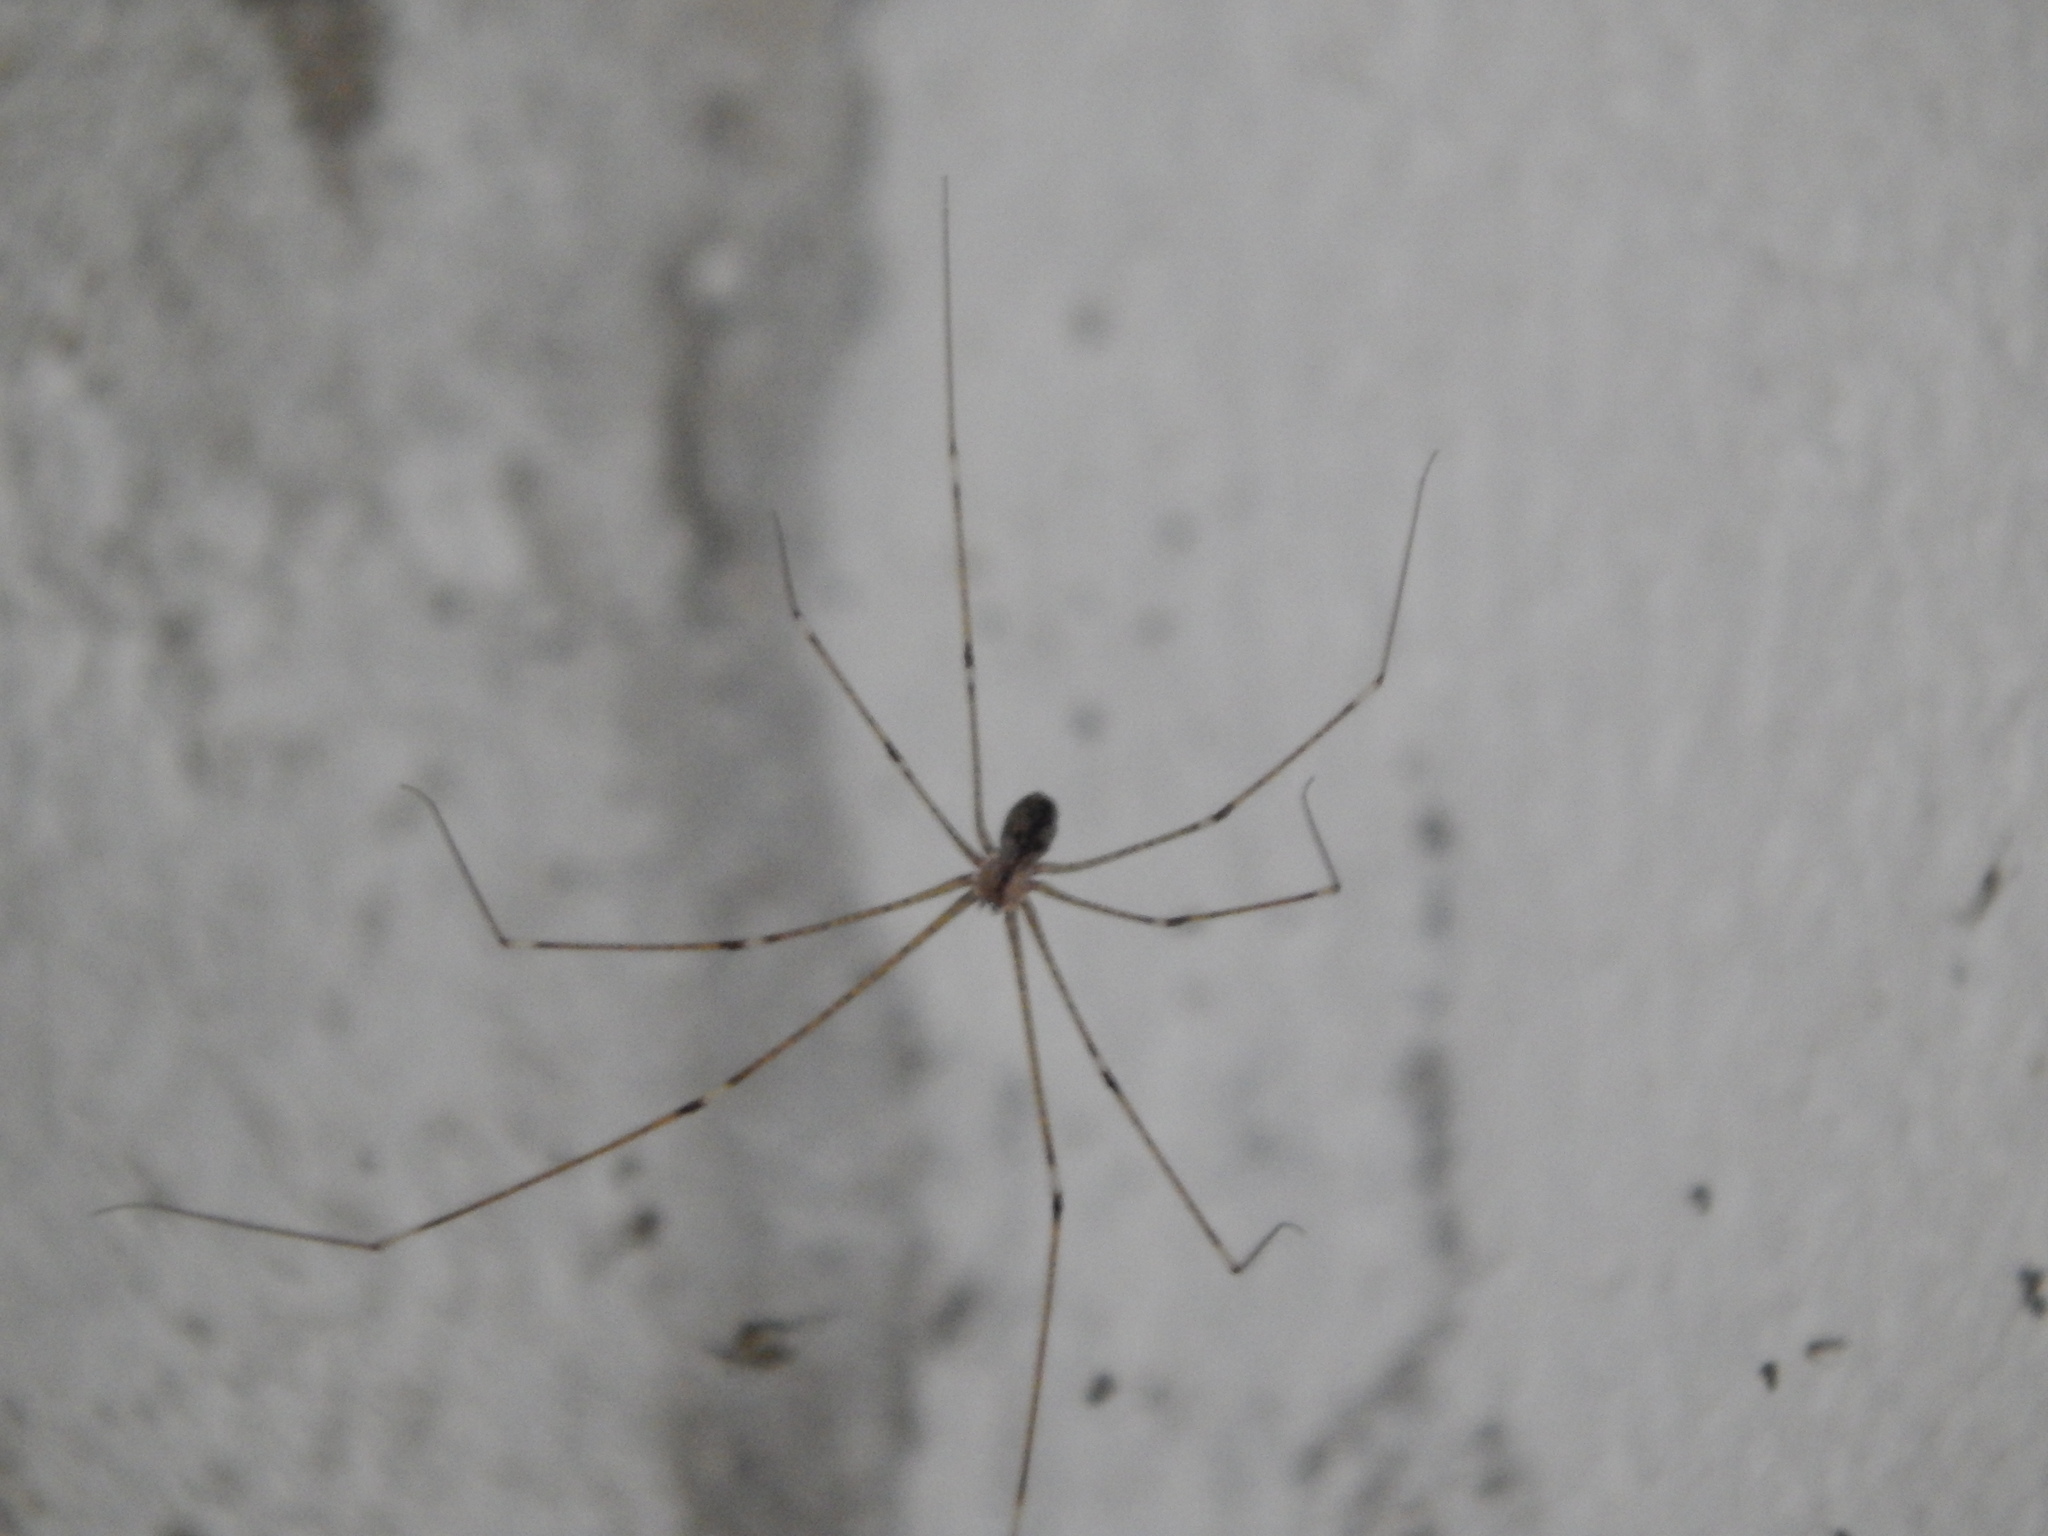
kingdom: Animalia
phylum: Arthropoda
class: Arachnida
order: Araneae
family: Pholcidae
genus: Physocyclus
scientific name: Physocyclus globosus
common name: Cellar spiders
